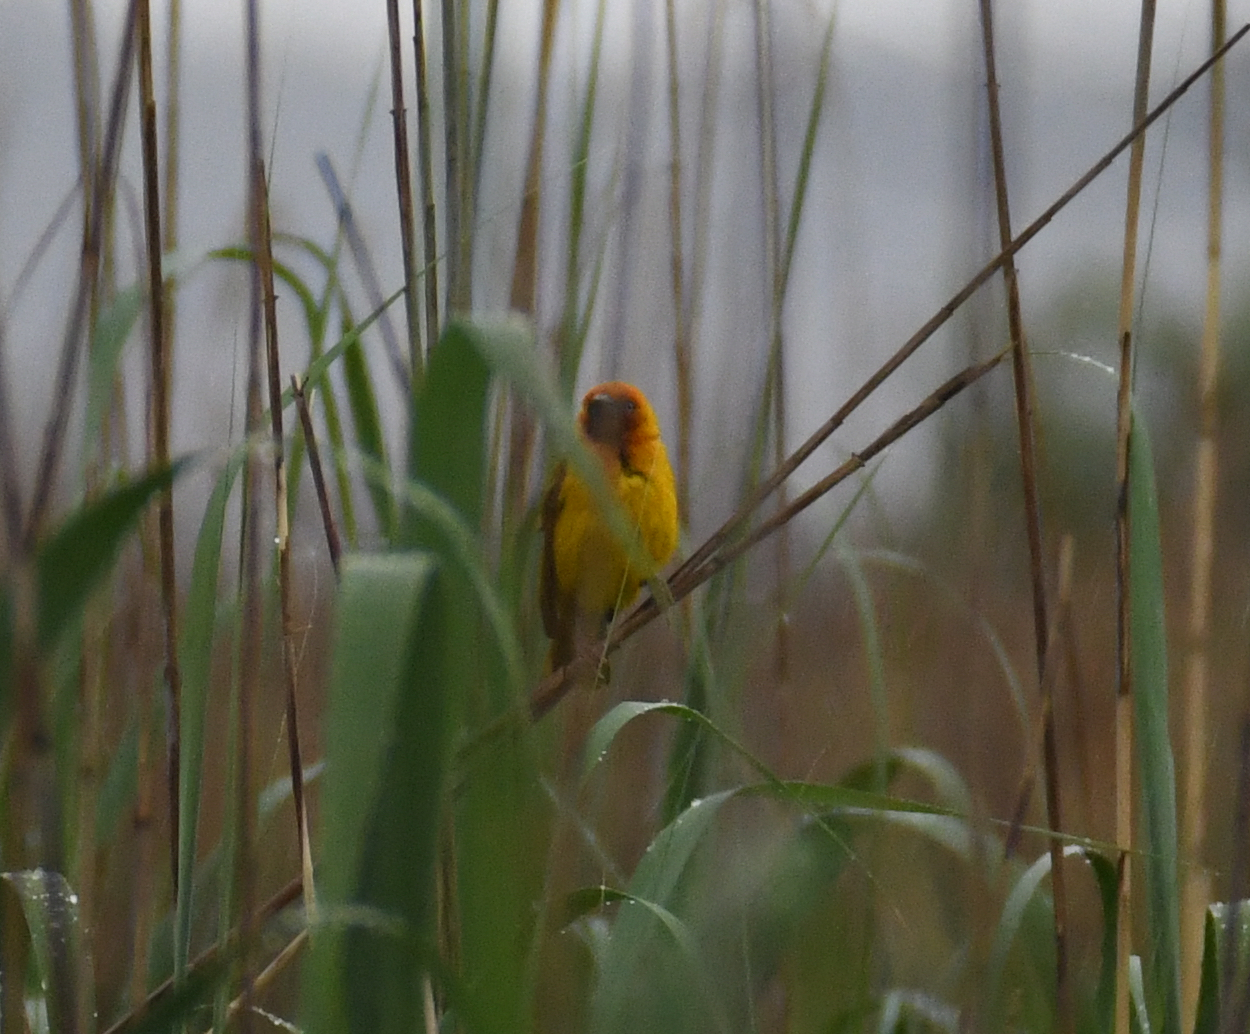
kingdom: Animalia
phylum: Chordata
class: Aves
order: Passeriformes
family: Ploceidae
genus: Ploceus
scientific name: Ploceus capensis
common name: Cape weaver
